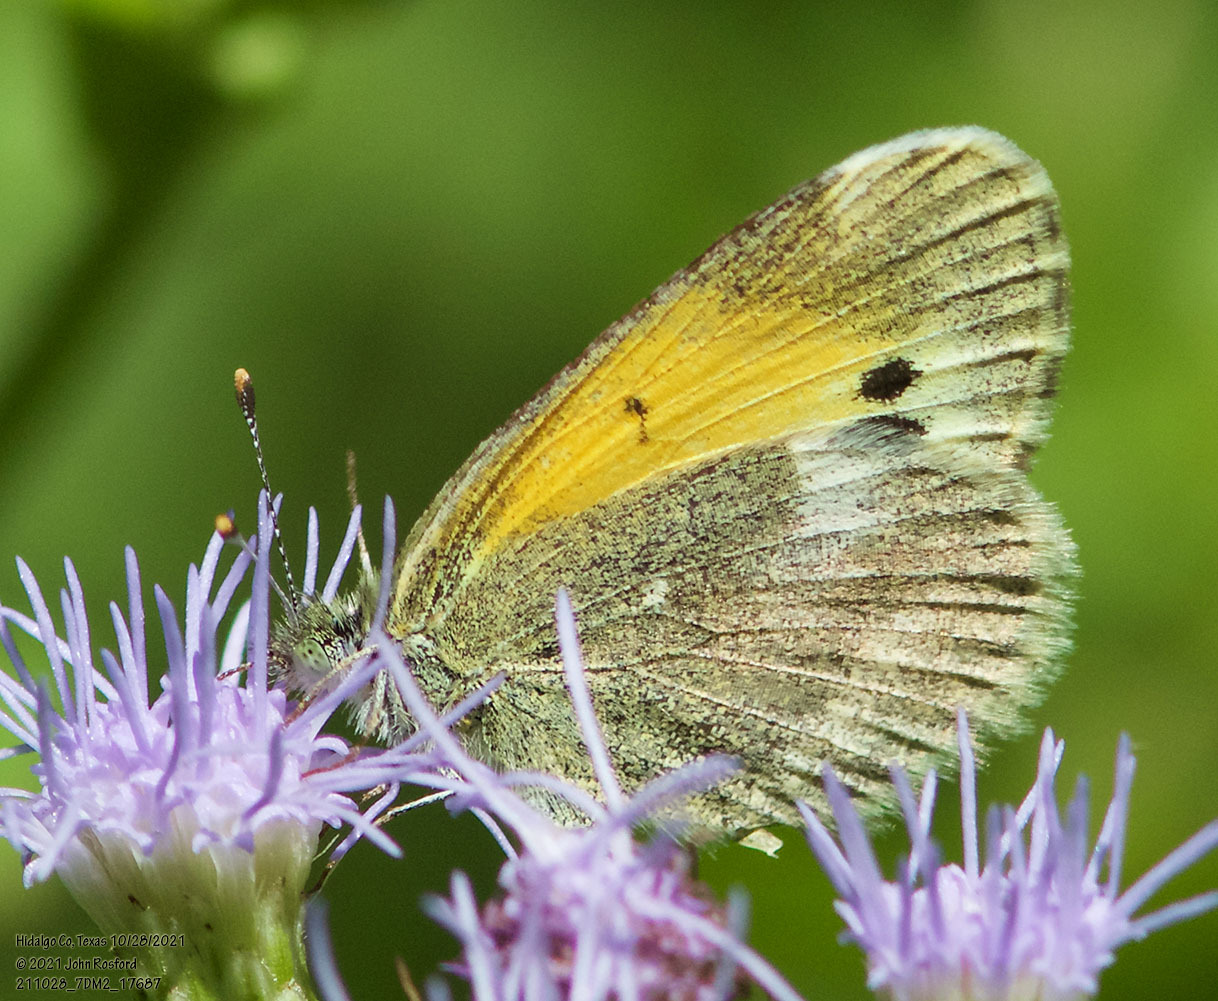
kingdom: Animalia
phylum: Arthropoda
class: Insecta
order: Lepidoptera
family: Pieridae
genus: Nathalis
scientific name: Nathalis iole
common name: Dainty sulphur
